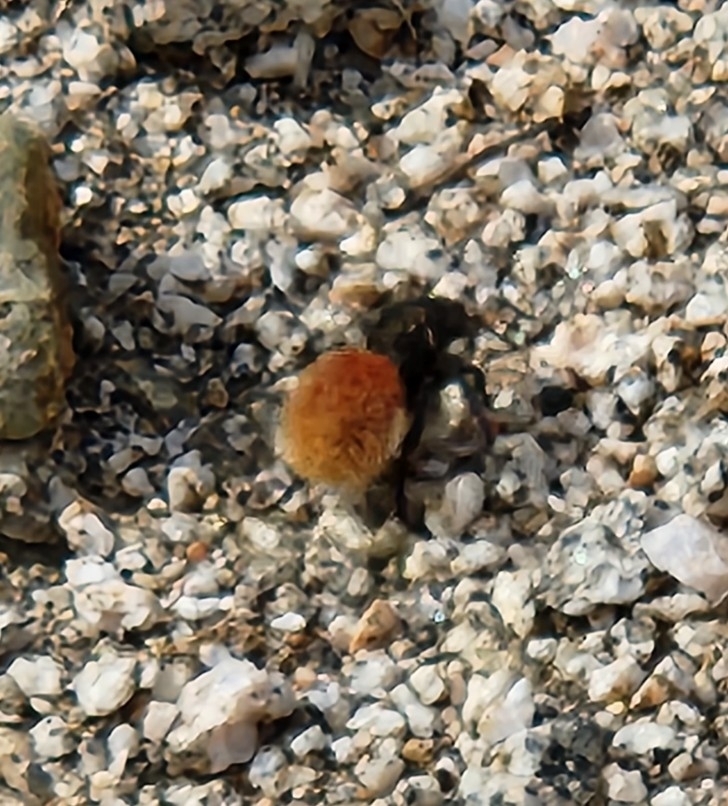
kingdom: Animalia
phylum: Arthropoda
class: Insecta
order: Hymenoptera
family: Mutillidae
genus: Dasymutilla
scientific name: Dasymutilla magnifica
